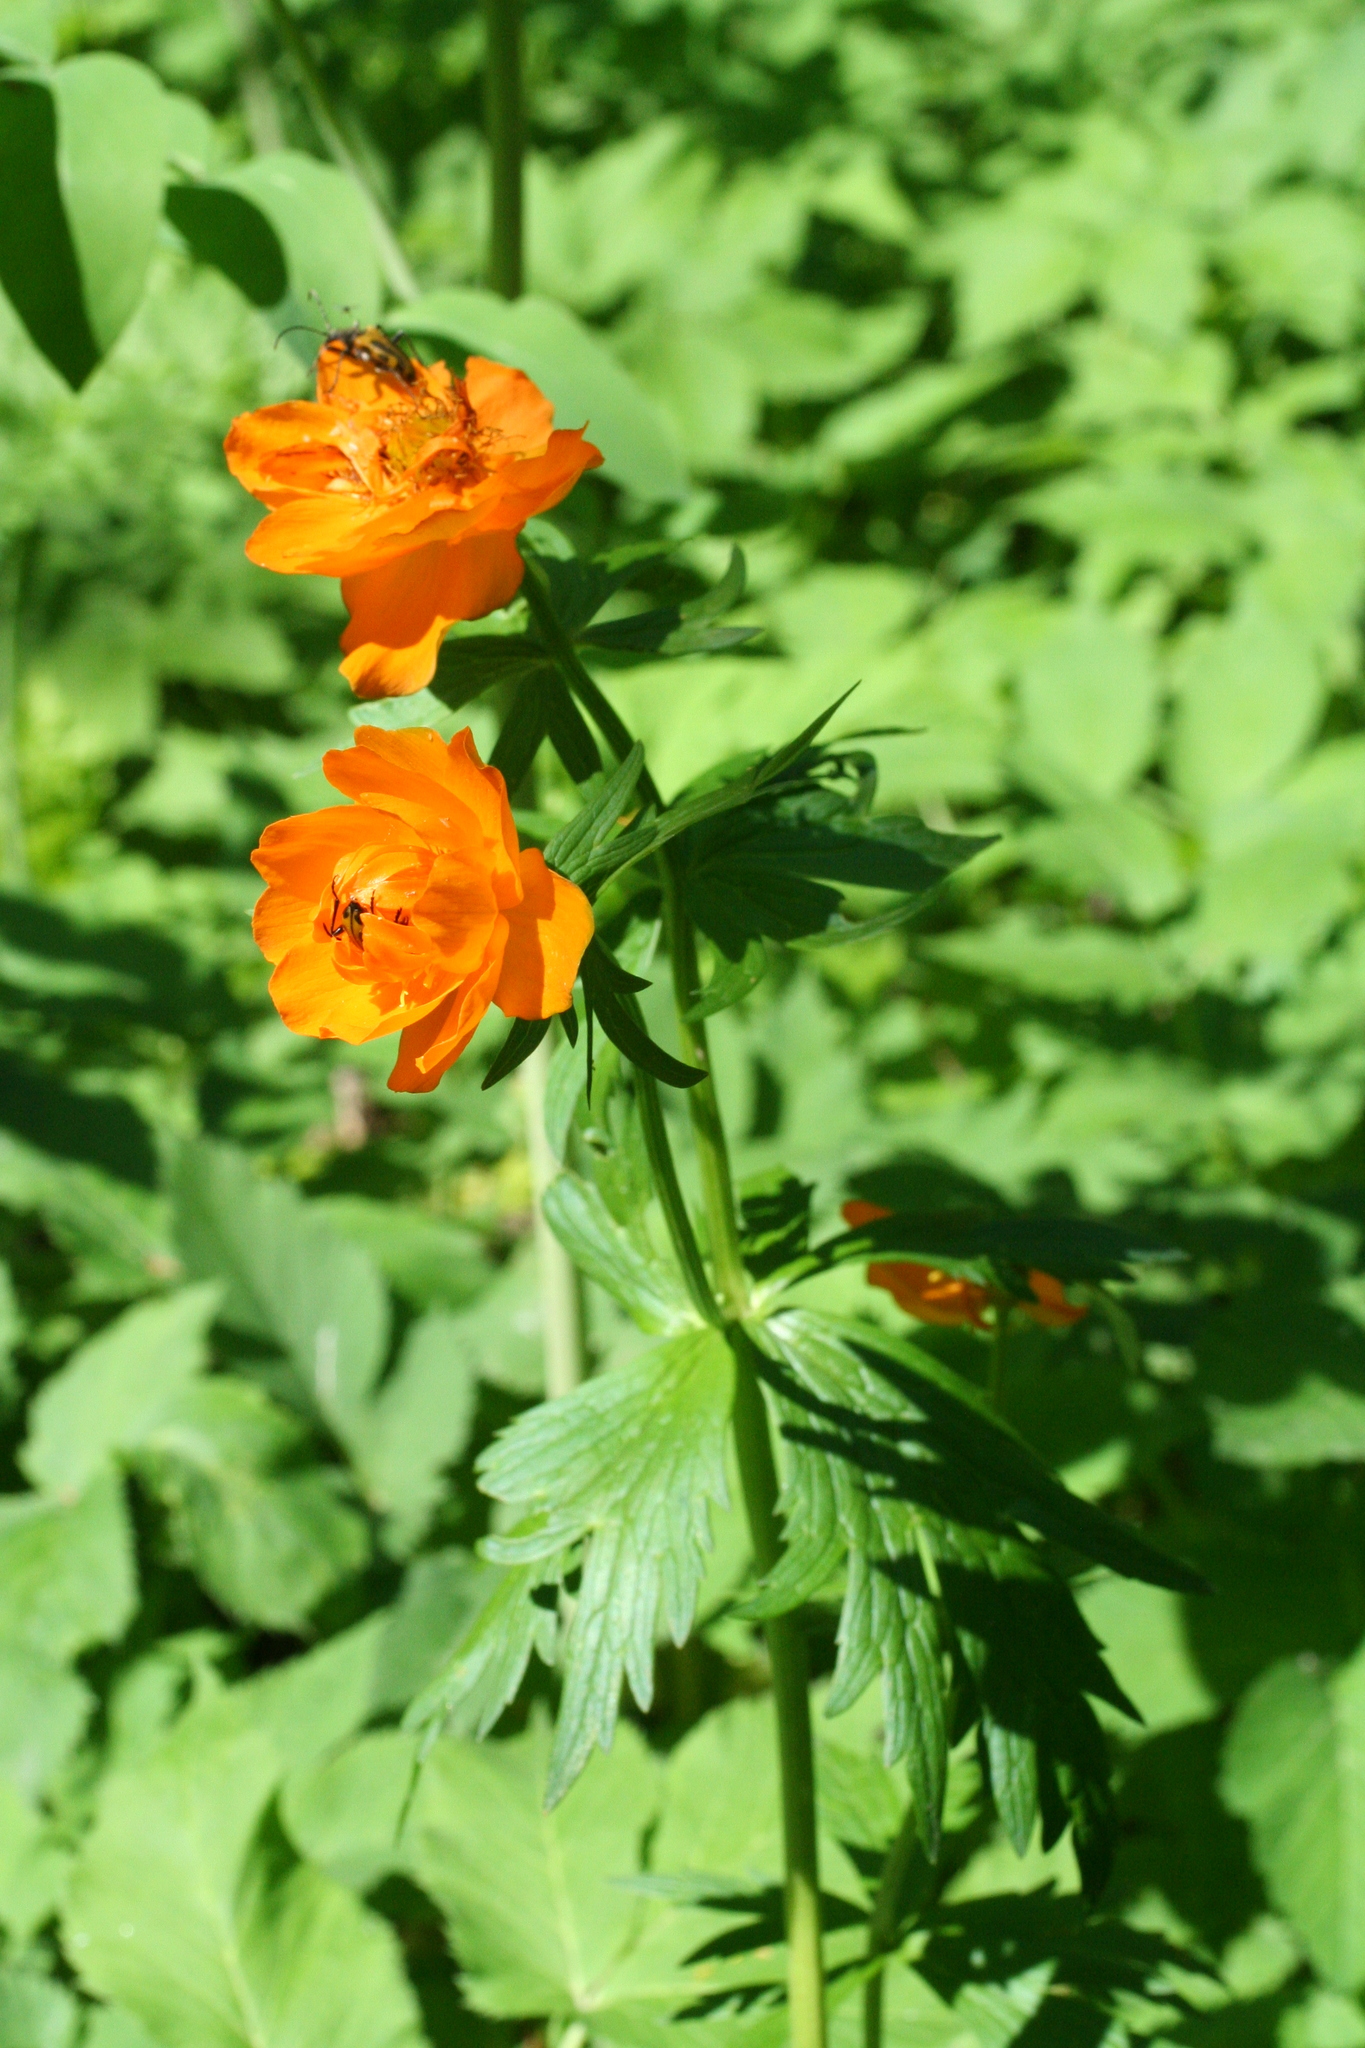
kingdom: Plantae
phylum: Tracheophyta
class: Magnoliopsida
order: Ranunculales
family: Ranunculaceae
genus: Trollius
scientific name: Trollius asiaticus
